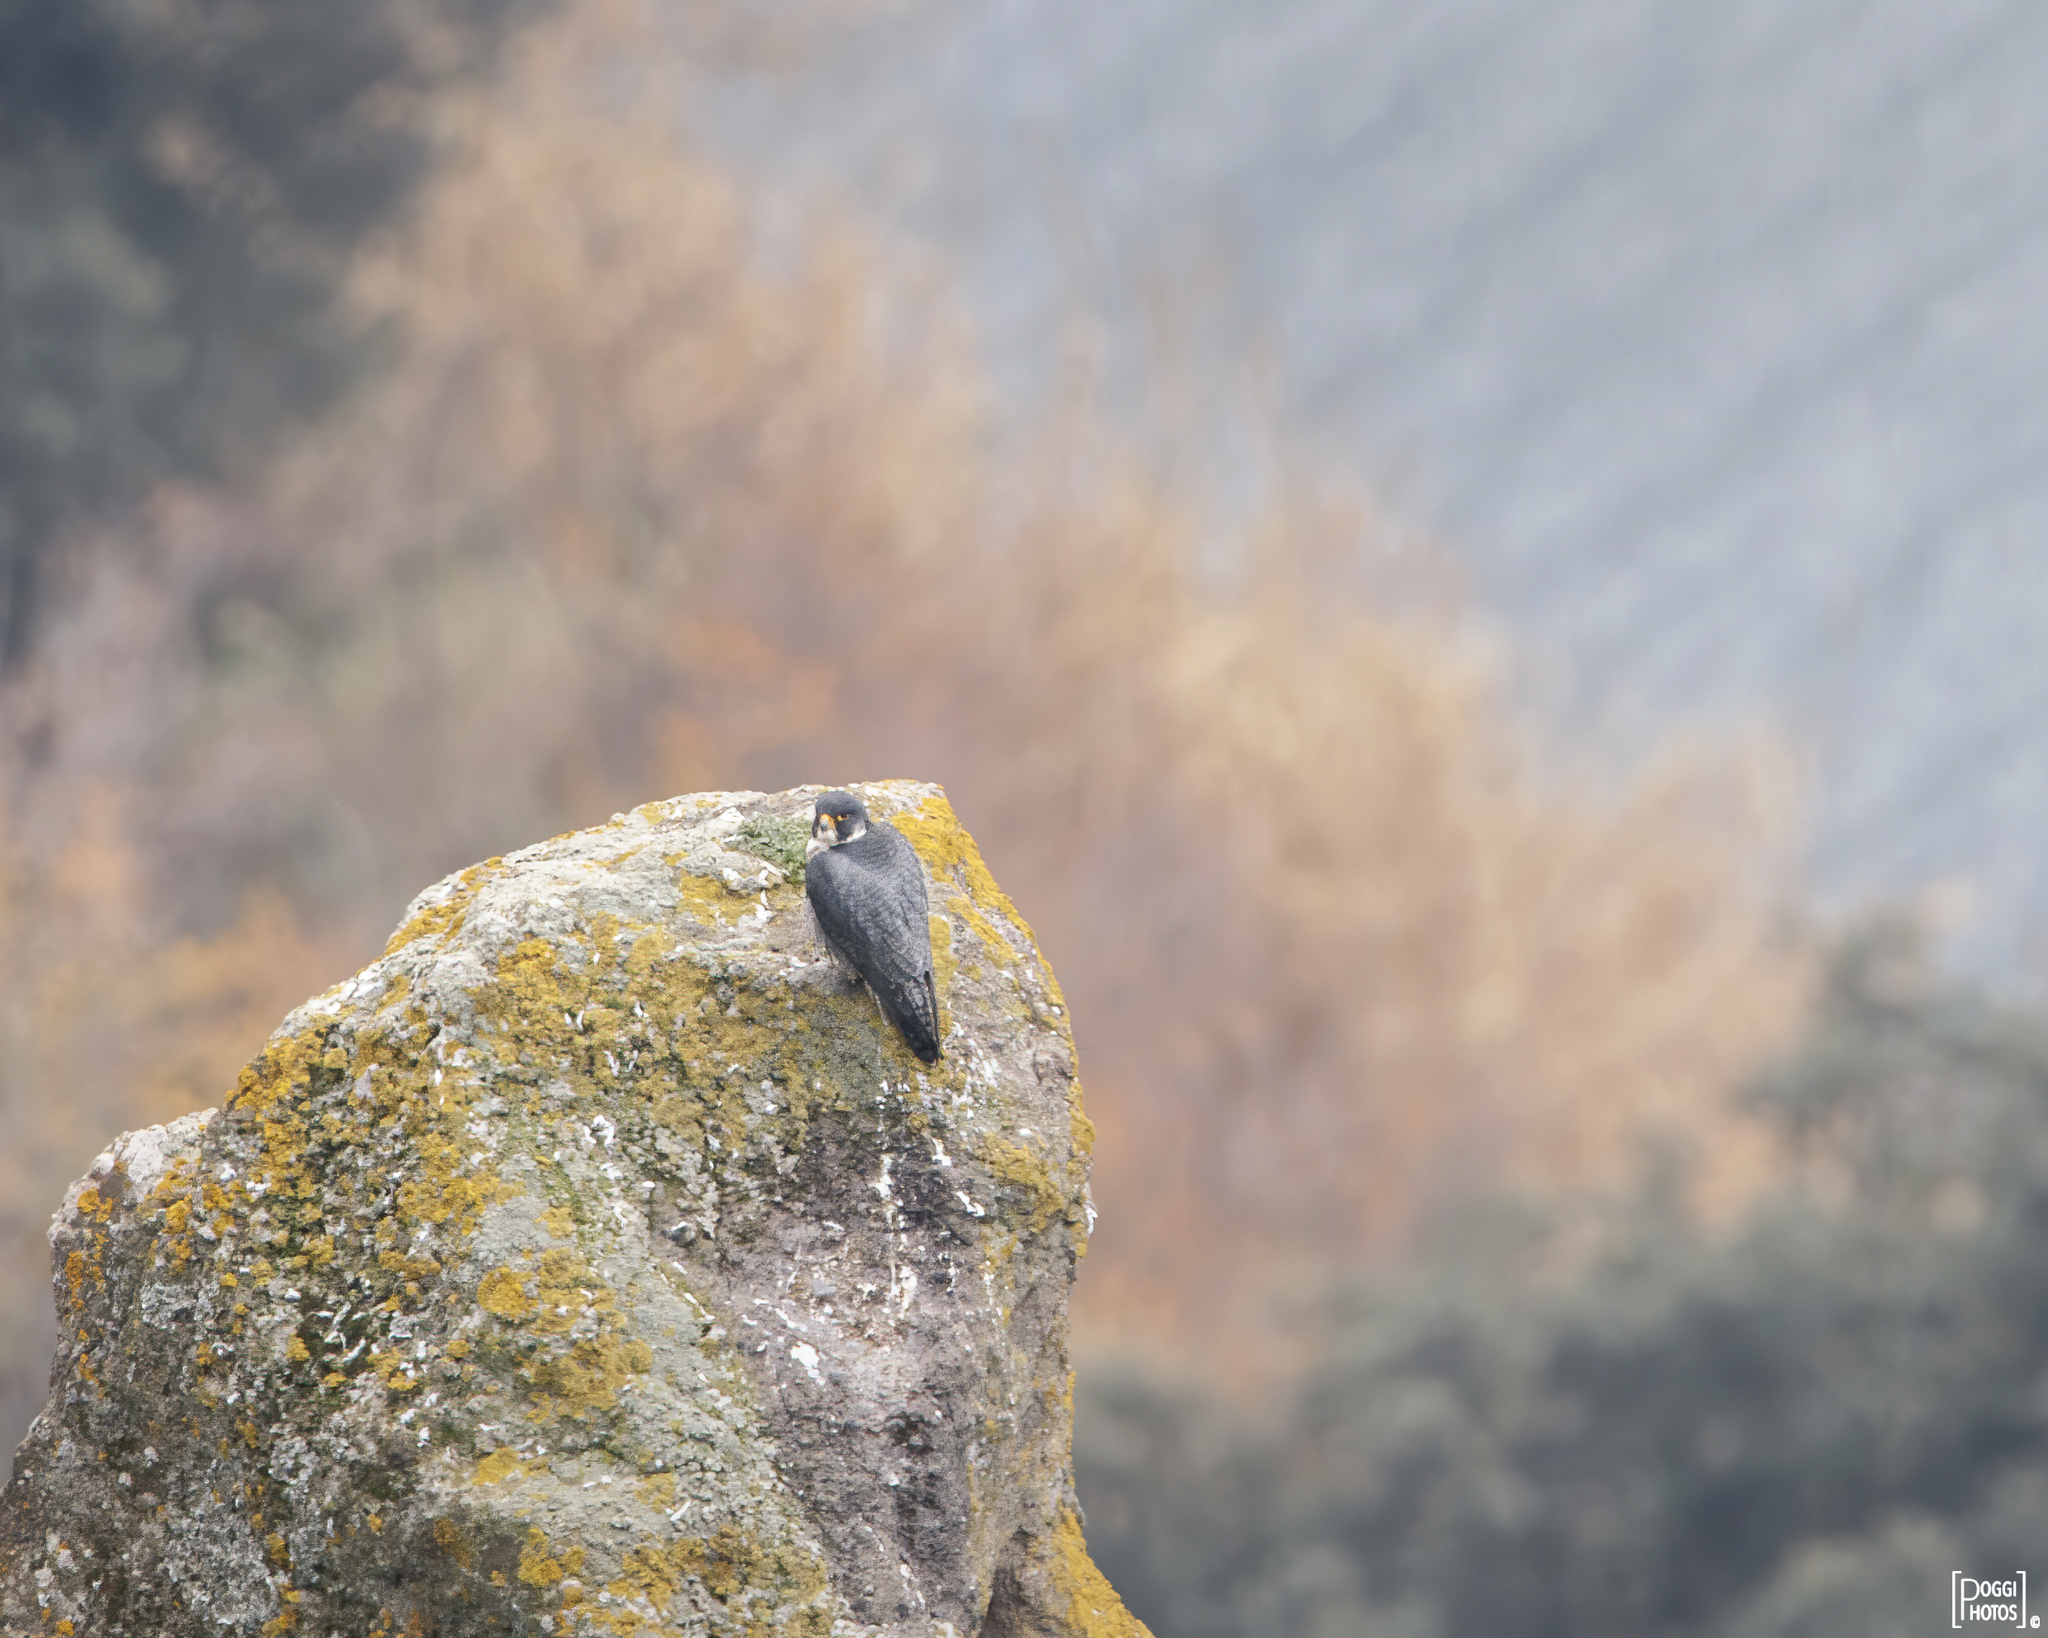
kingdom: Animalia
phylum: Chordata
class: Aves
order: Falconiformes
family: Falconidae
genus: Falco
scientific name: Falco peregrinus
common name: Peregrine falcon
